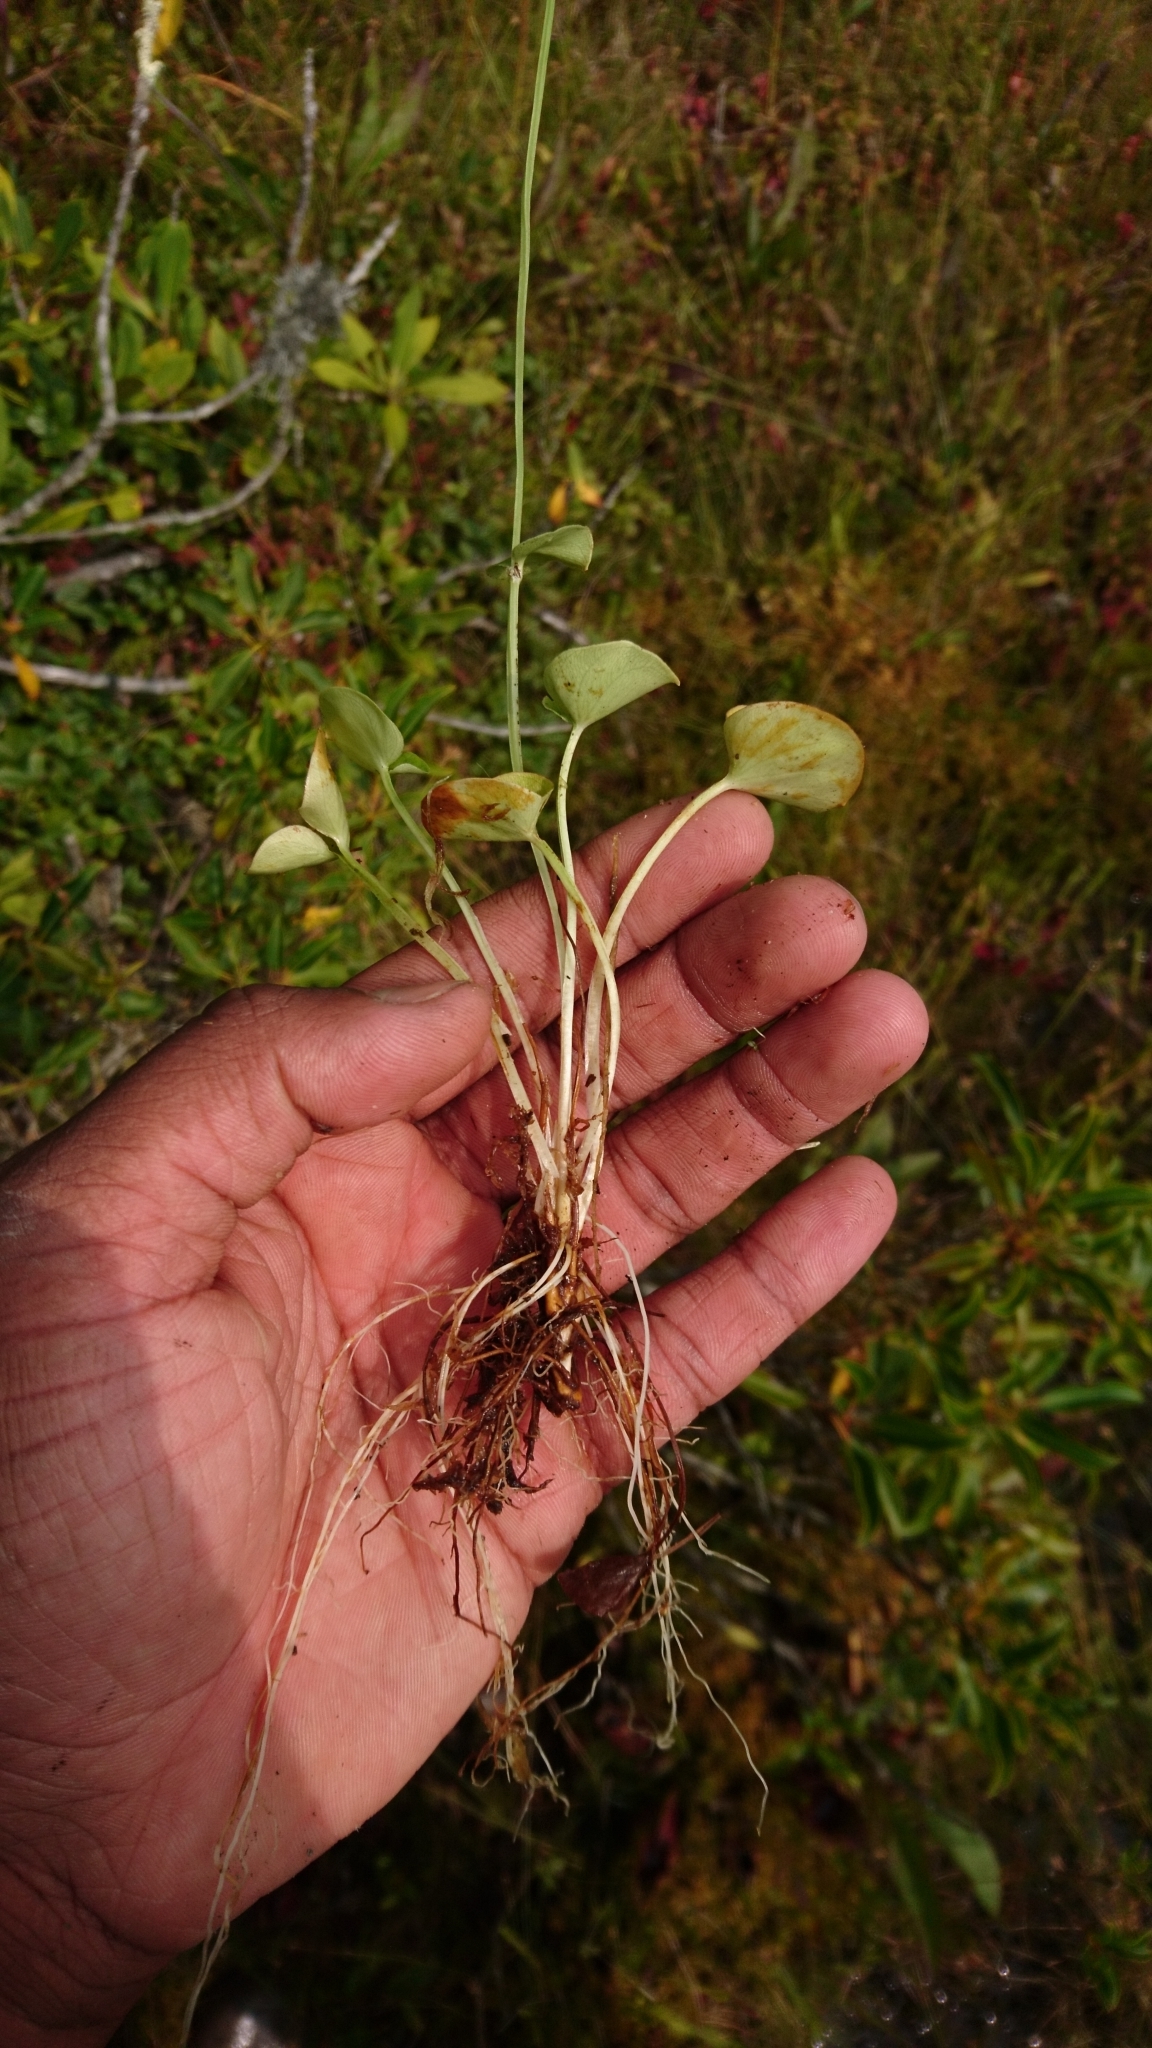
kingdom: Plantae
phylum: Tracheophyta
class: Magnoliopsida
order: Celastrales
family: Parnassiaceae
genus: Parnassia
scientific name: Parnassia asarifolia
